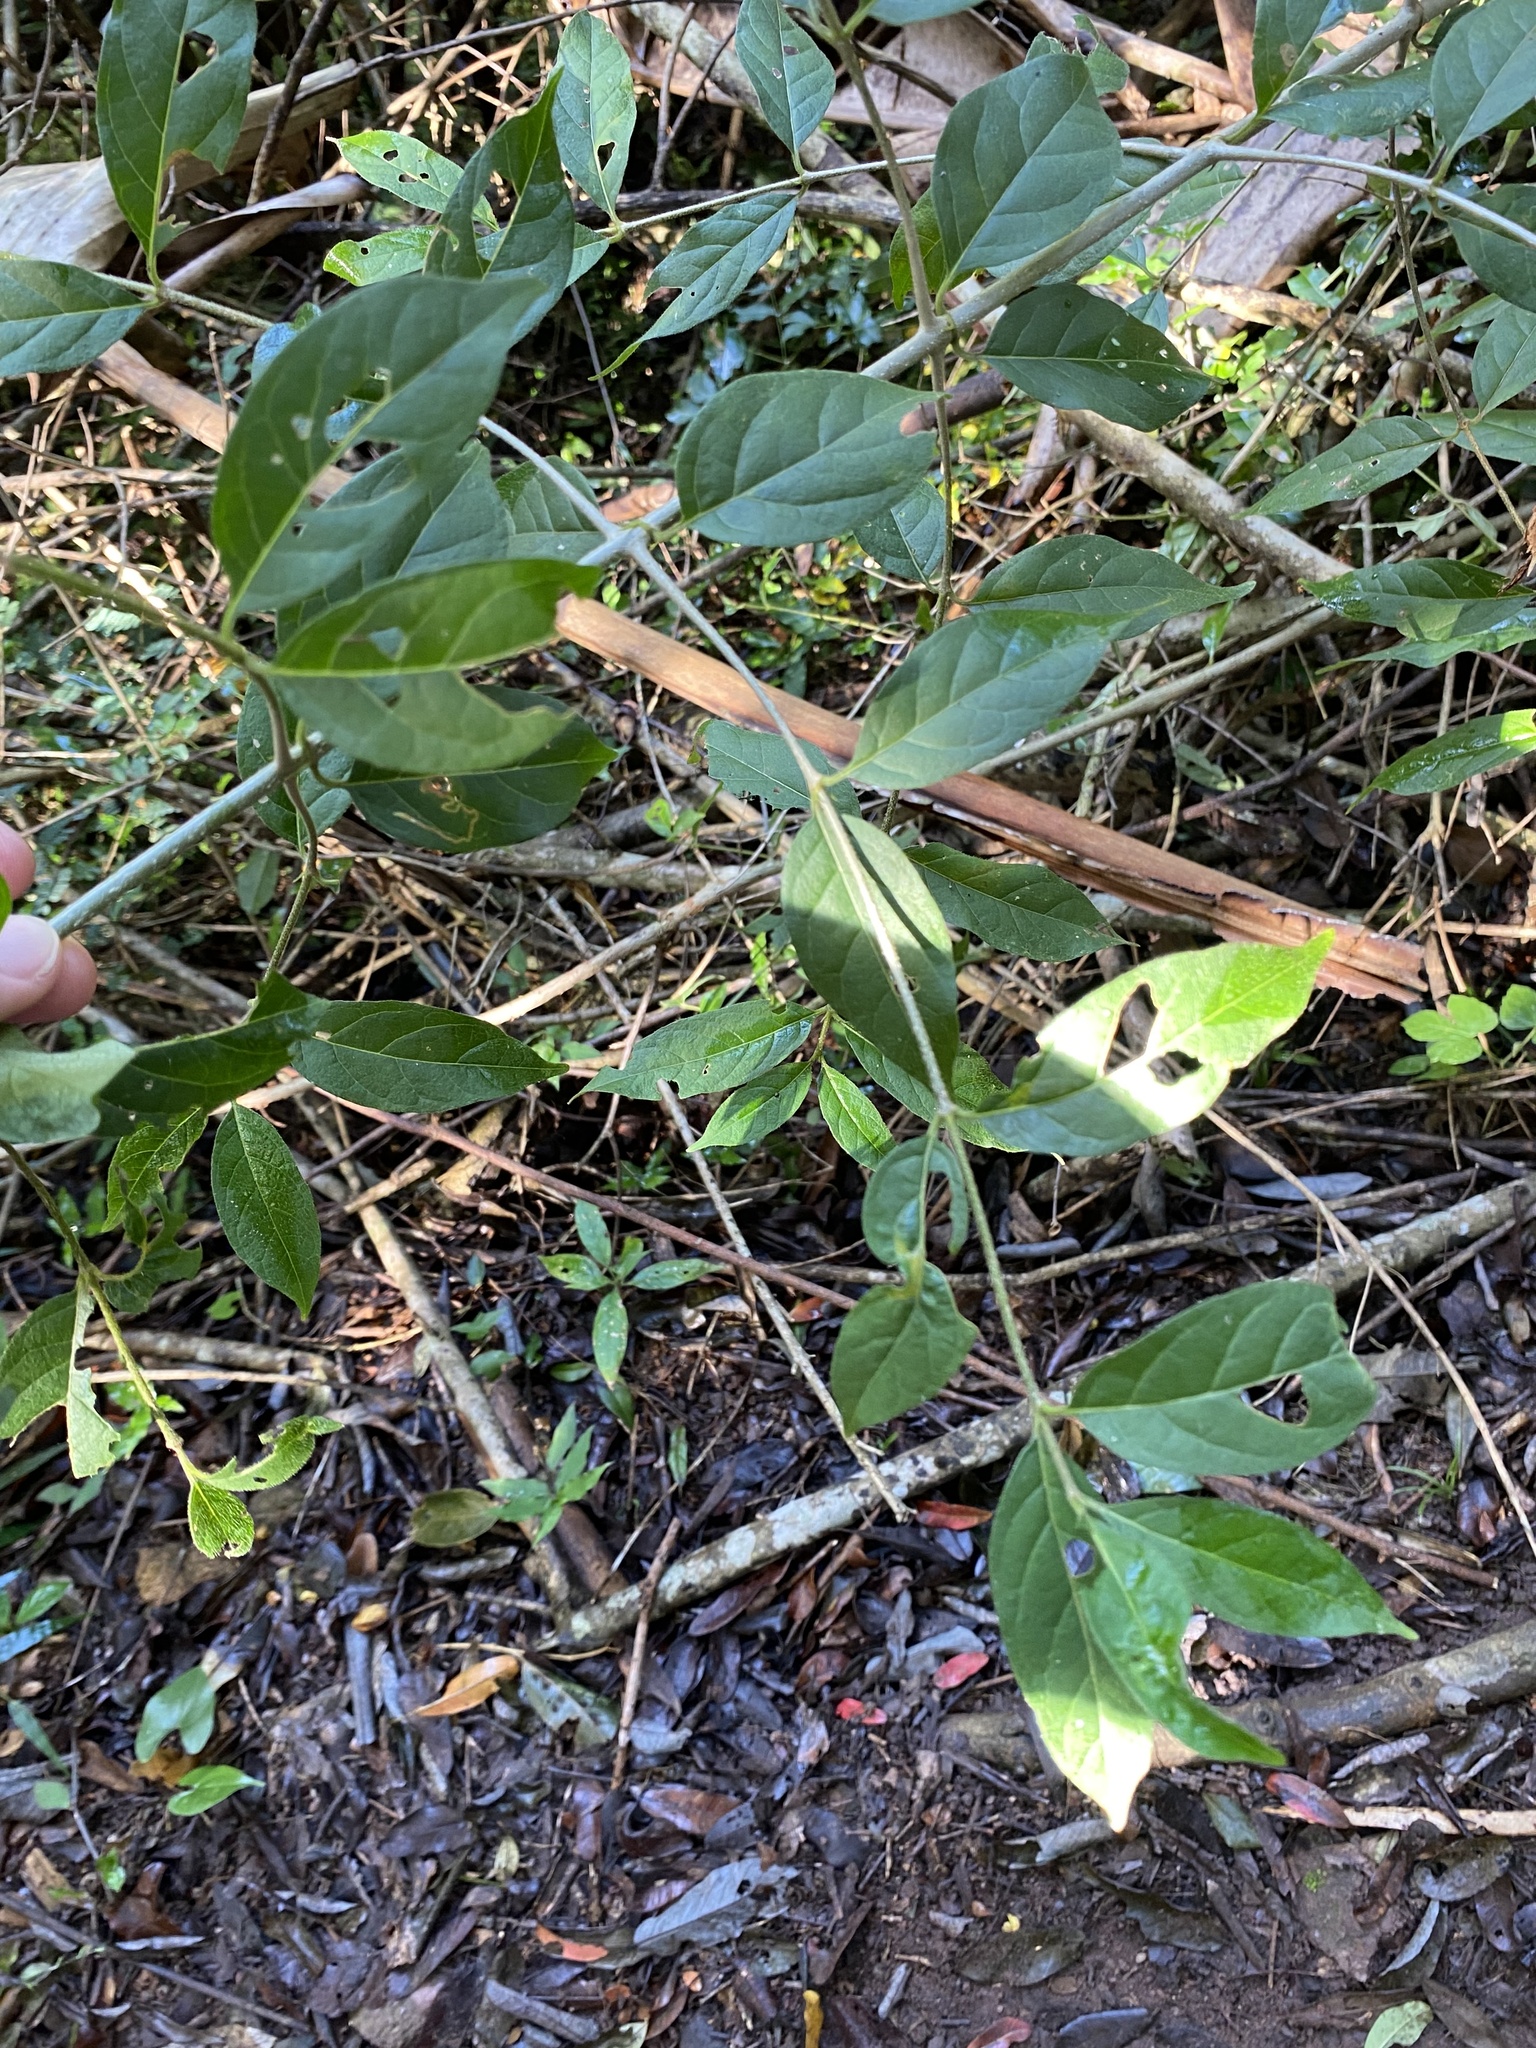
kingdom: Plantae
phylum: Tracheophyta
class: Magnoliopsida
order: Gentianales
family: Rubiaceae
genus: Keetia
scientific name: Keetia gueinzii
